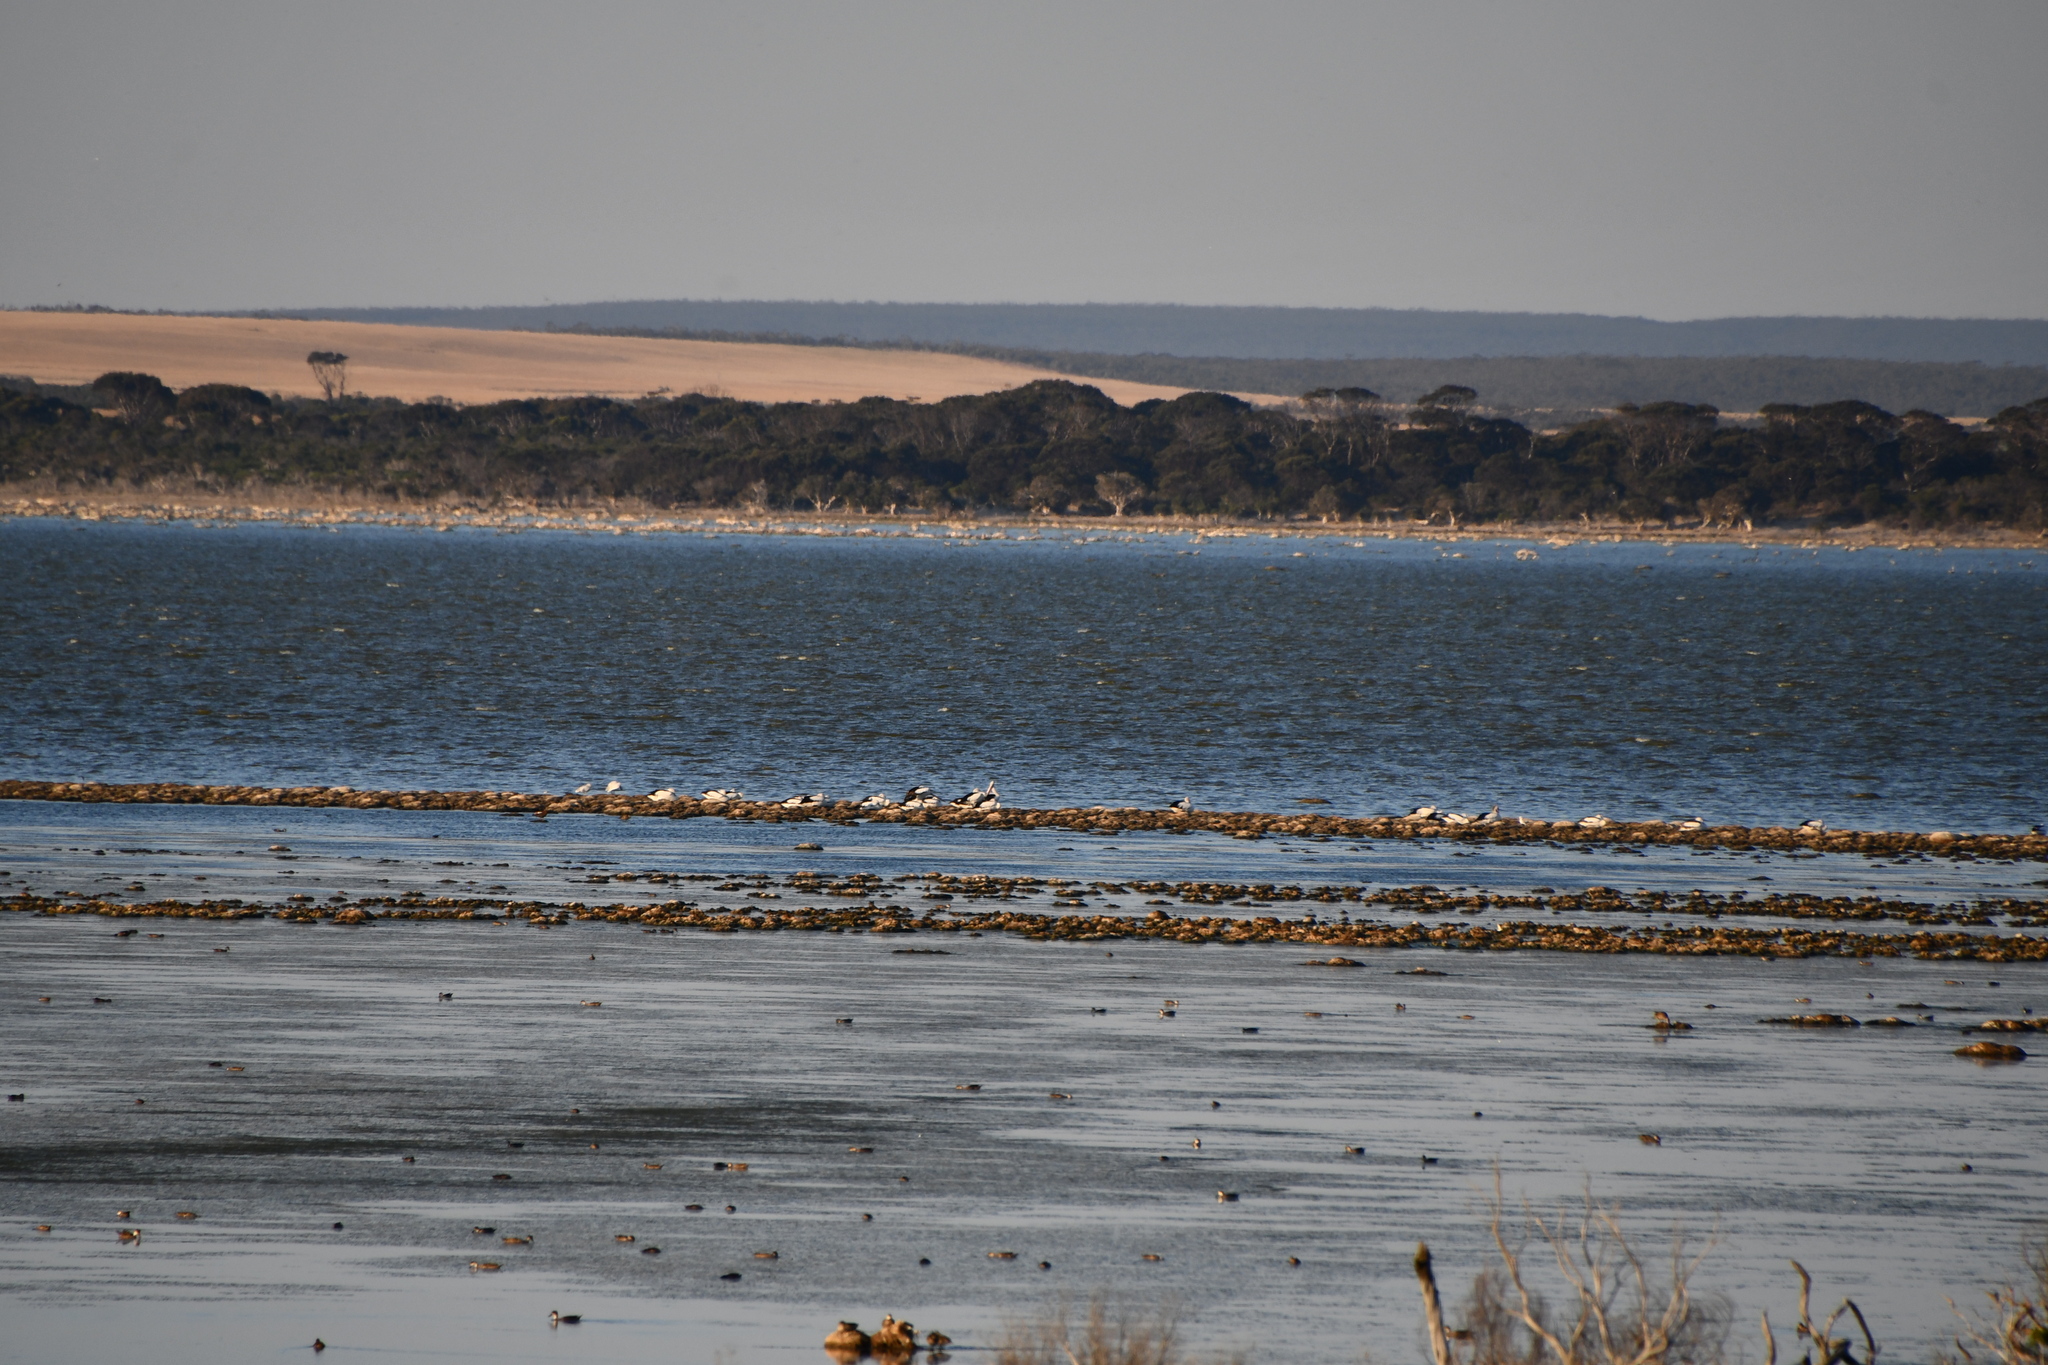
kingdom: Animalia
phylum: Chordata
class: Aves
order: Pelecaniformes
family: Pelecanidae
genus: Pelecanus
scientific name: Pelecanus conspicillatus
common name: Australian pelican
